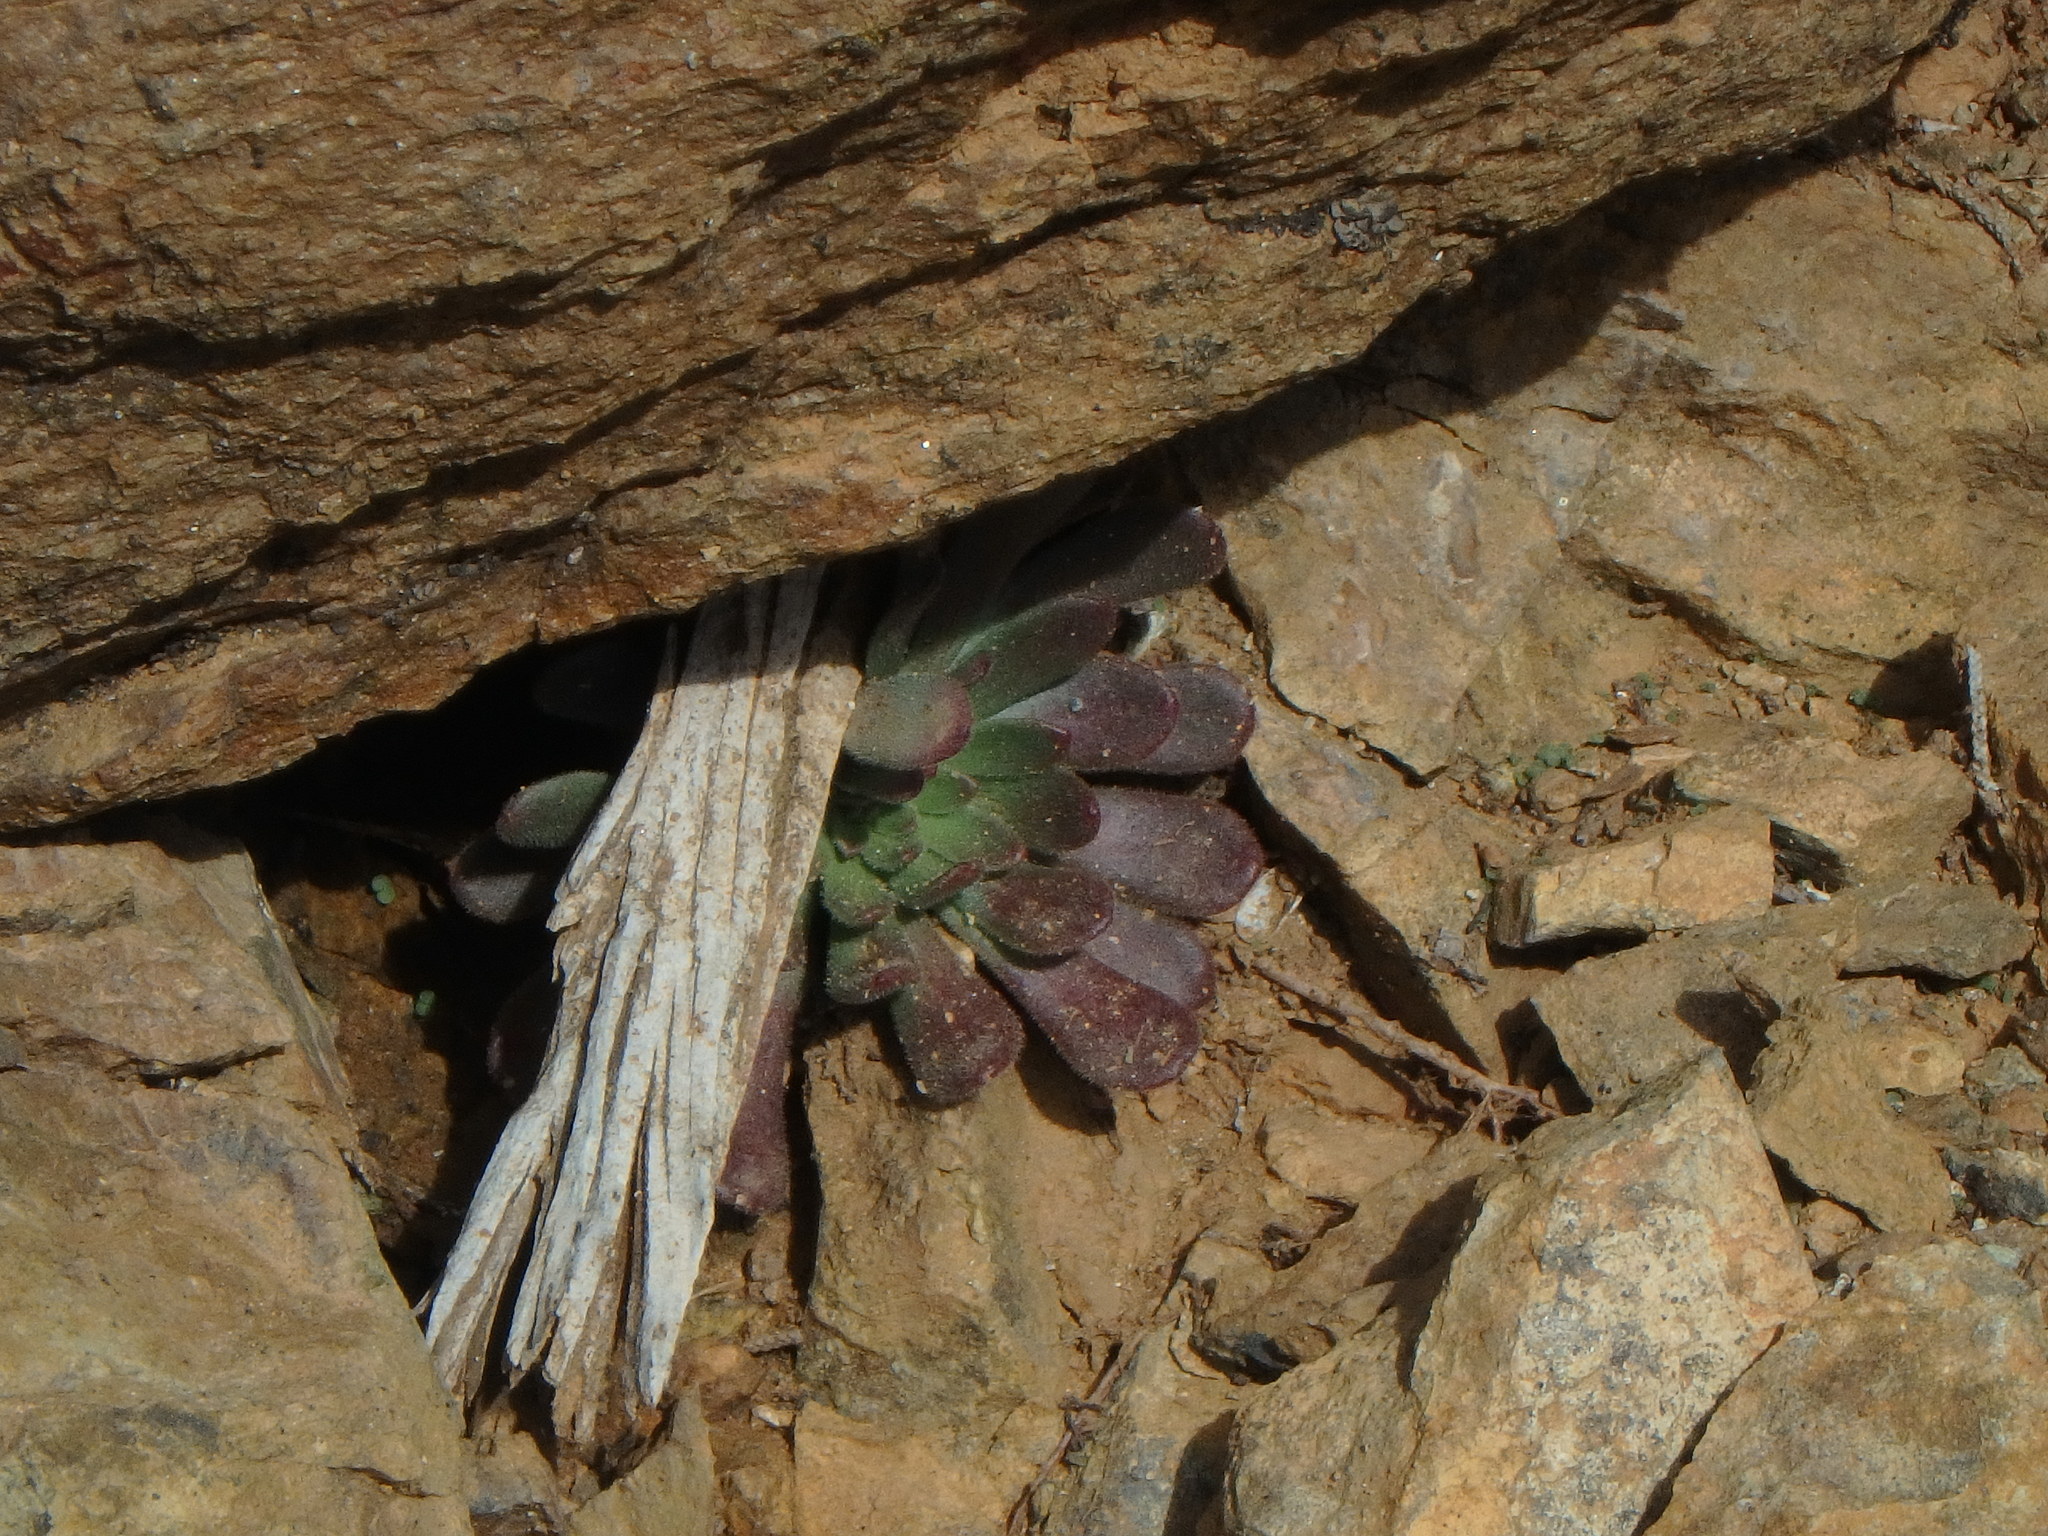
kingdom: Plantae
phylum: Tracheophyta
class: Magnoliopsida
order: Saxifragales
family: Crassulaceae
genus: Sedum
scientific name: Sedum microstachyum
